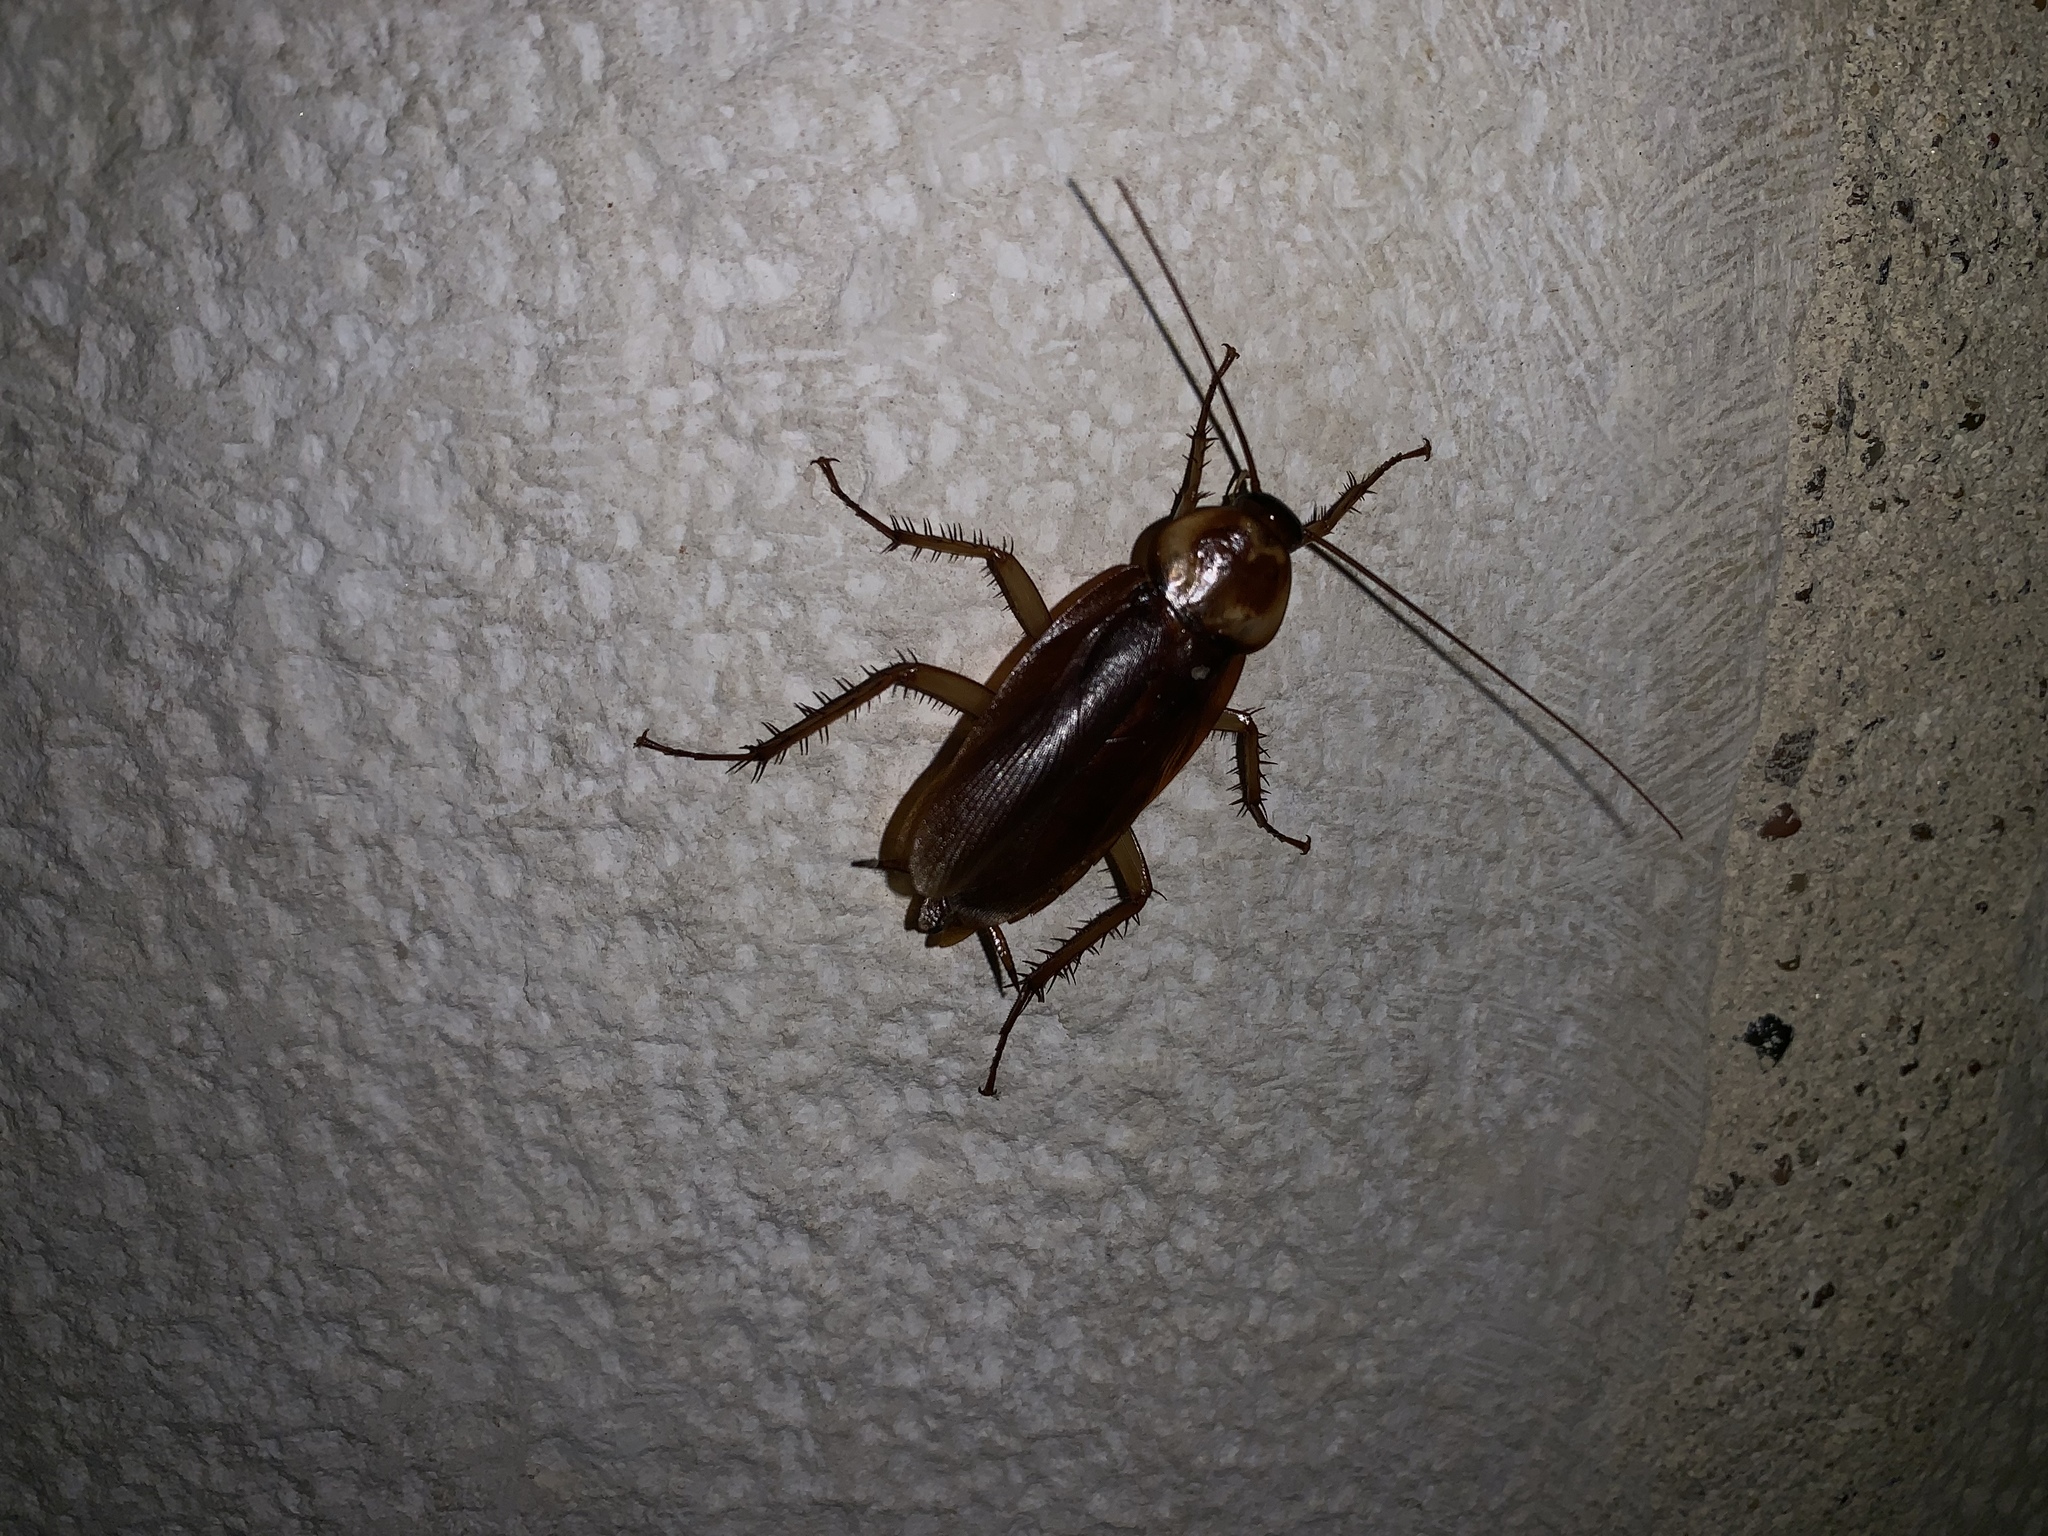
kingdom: Animalia
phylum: Arthropoda
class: Insecta
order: Blattodea
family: Blattidae
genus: Periplaneta
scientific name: Periplaneta americana
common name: American cockroach
